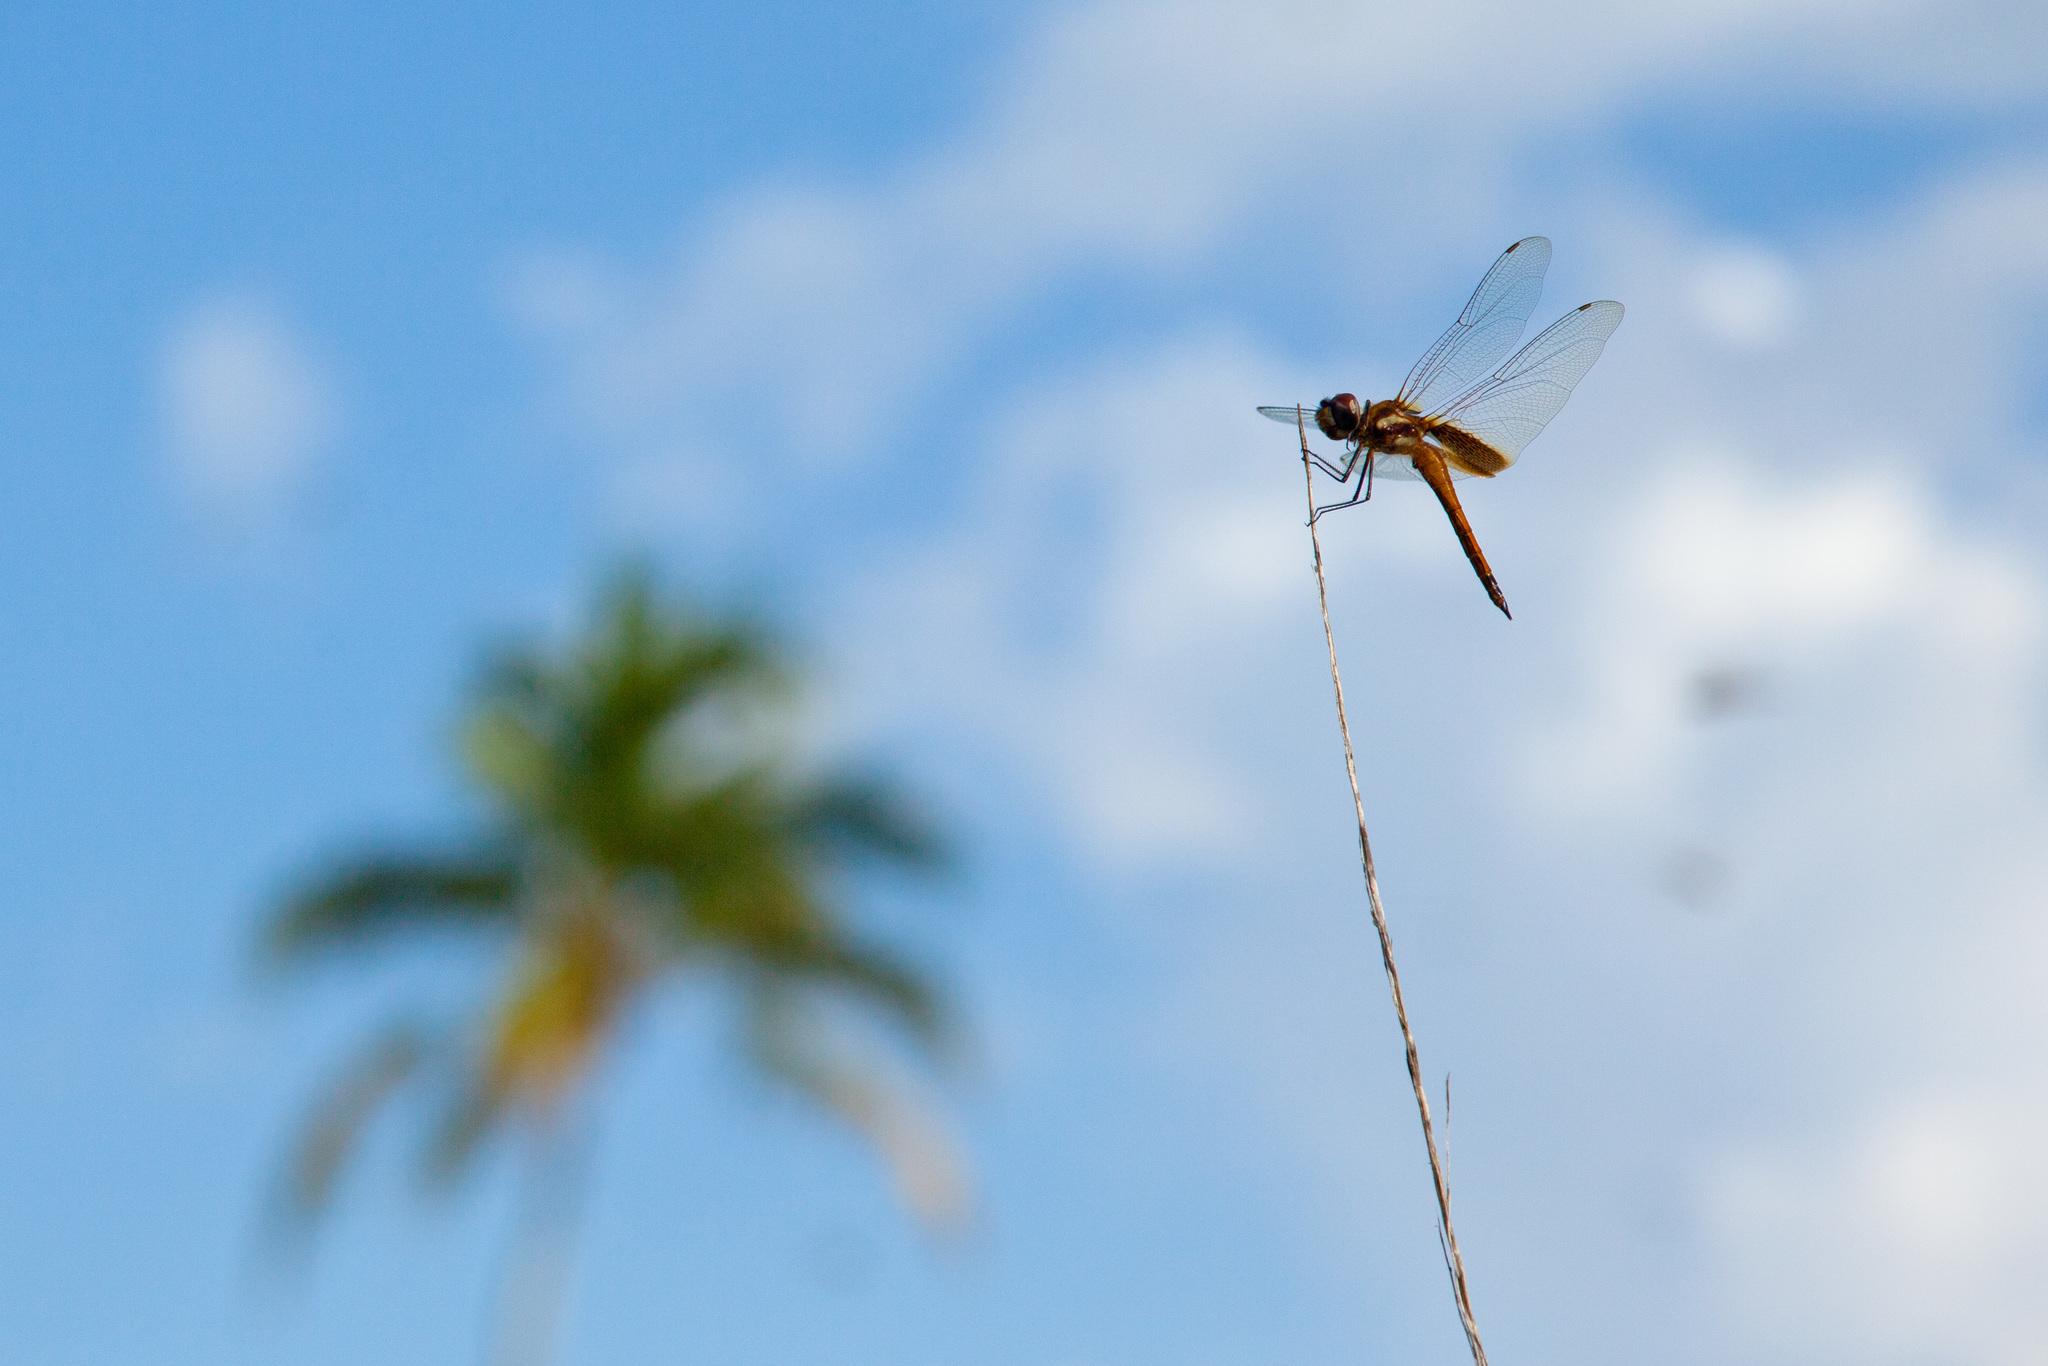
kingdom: Animalia
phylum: Arthropoda
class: Insecta
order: Odonata
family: Libellulidae
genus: Tramea
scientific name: Tramea darwini
